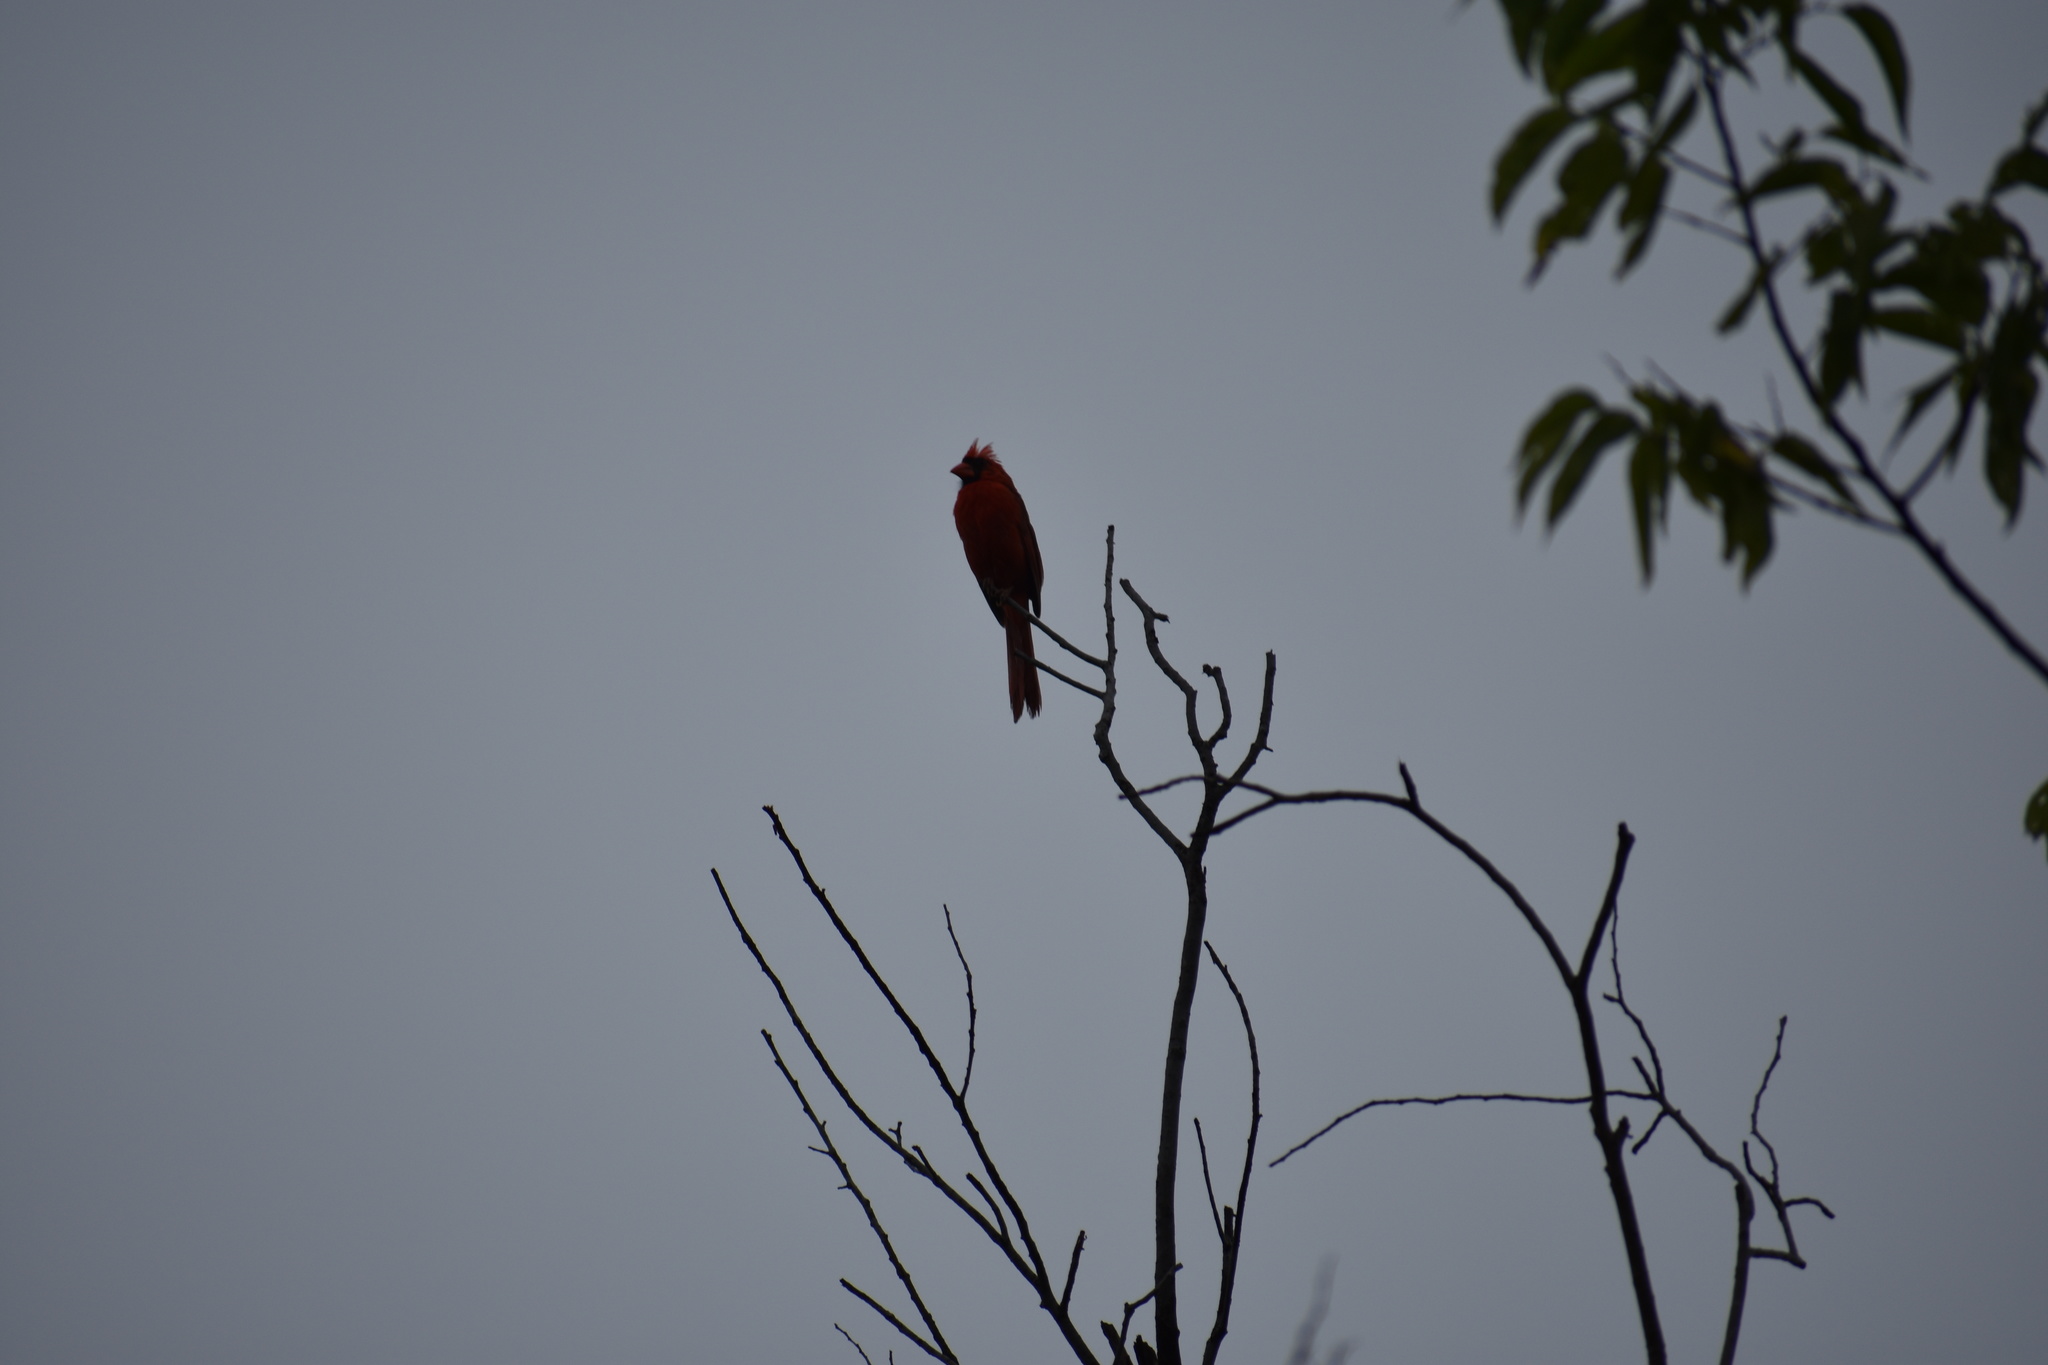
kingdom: Animalia
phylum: Chordata
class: Aves
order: Passeriformes
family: Cardinalidae
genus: Cardinalis
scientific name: Cardinalis cardinalis
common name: Northern cardinal
